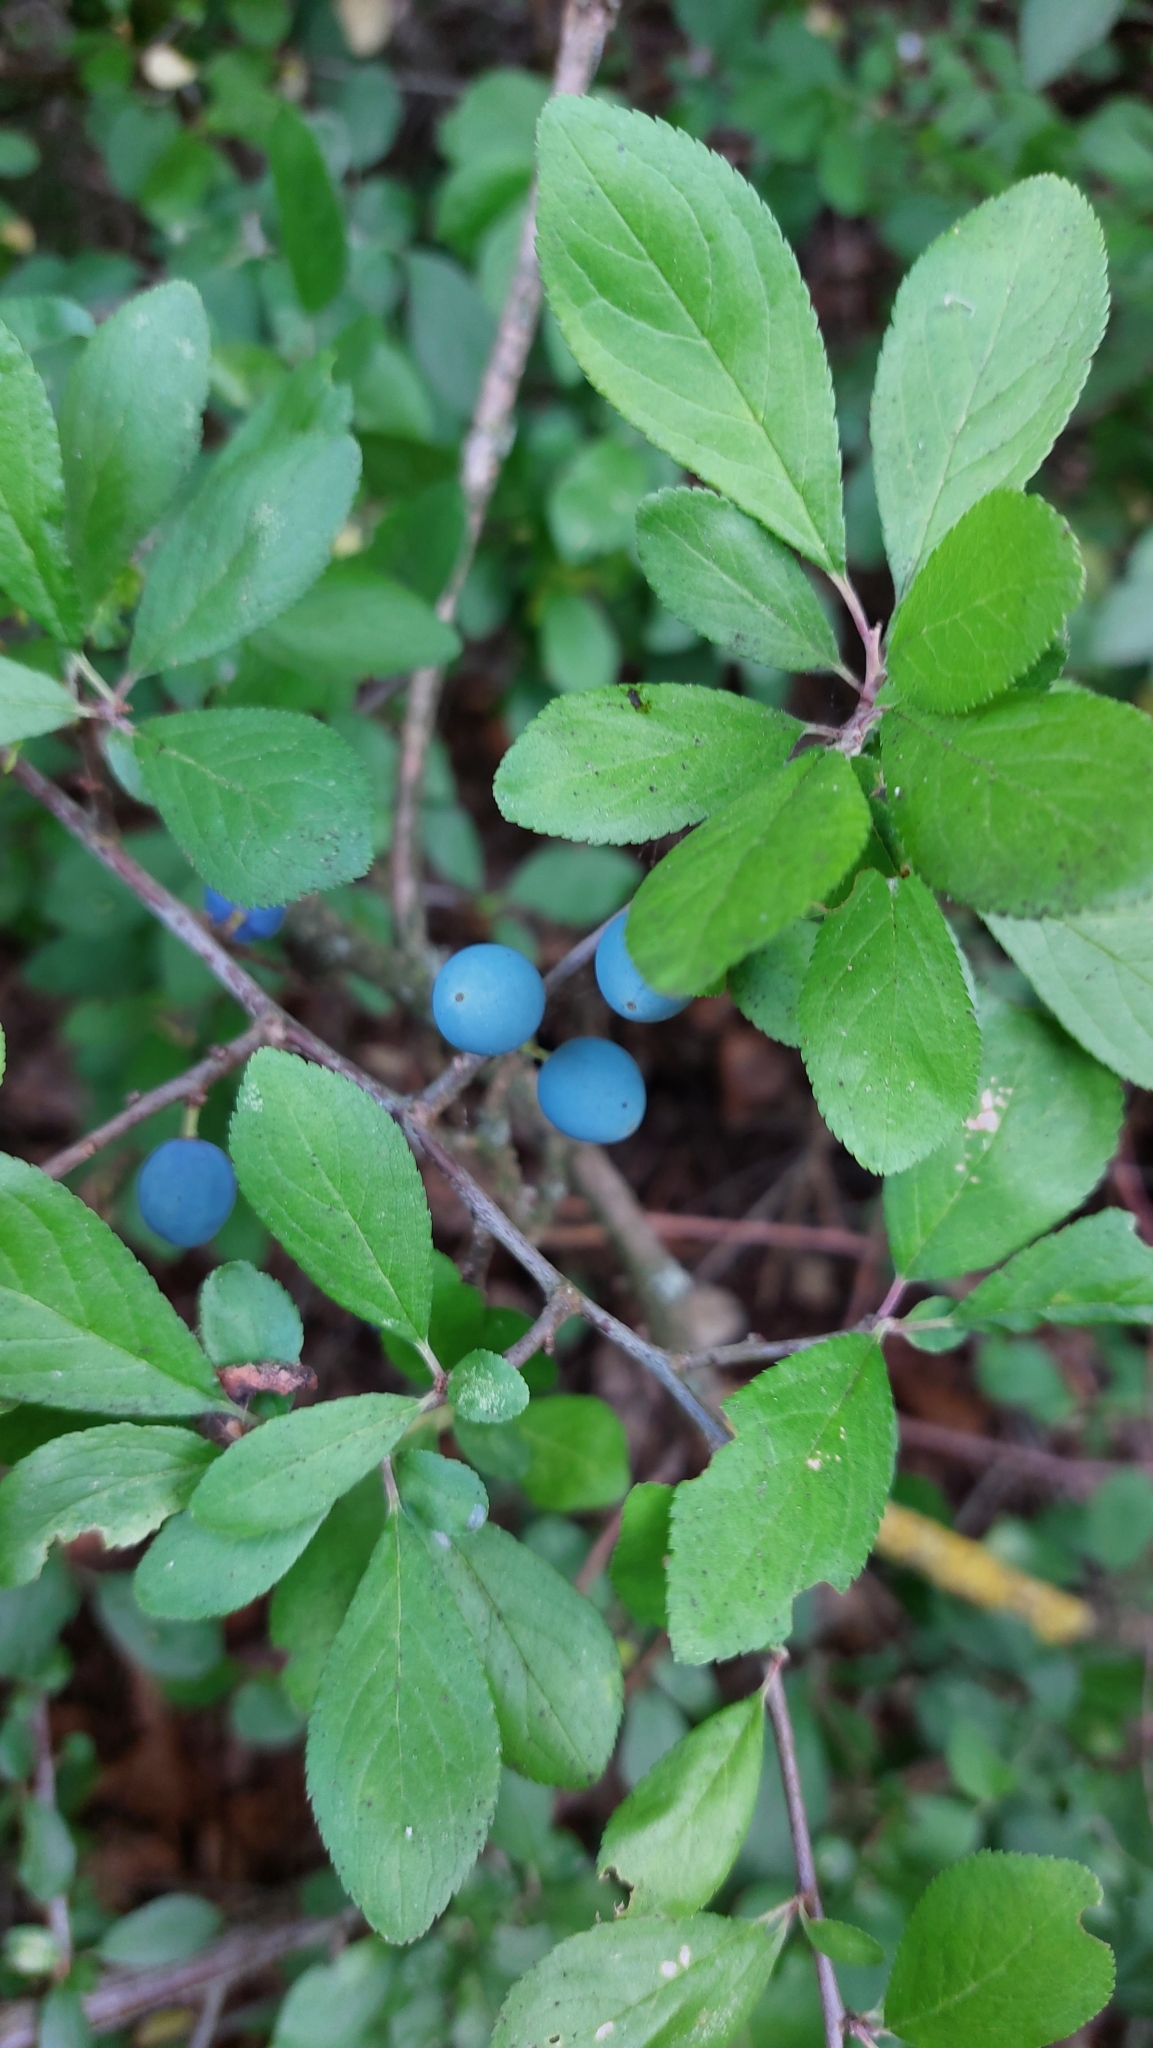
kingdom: Plantae
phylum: Tracheophyta
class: Magnoliopsida
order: Rosales
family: Rosaceae
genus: Prunus
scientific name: Prunus spinosa
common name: Blackthorn
